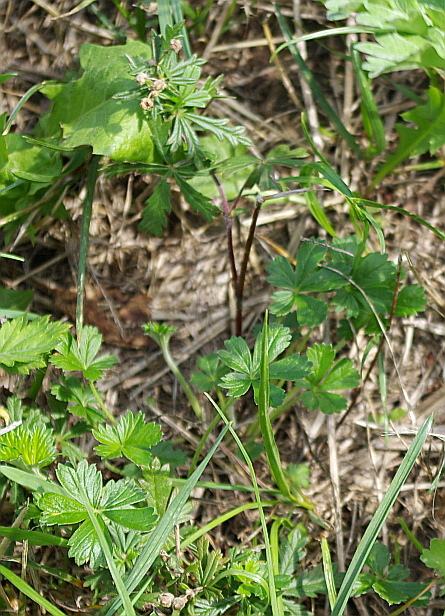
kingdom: Plantae
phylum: Tracheophyta
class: Magnoliopsida
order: Rosales
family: Rosaceae
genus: Potentilla
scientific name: Potentilla argentea
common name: Hoary cinquefoil
